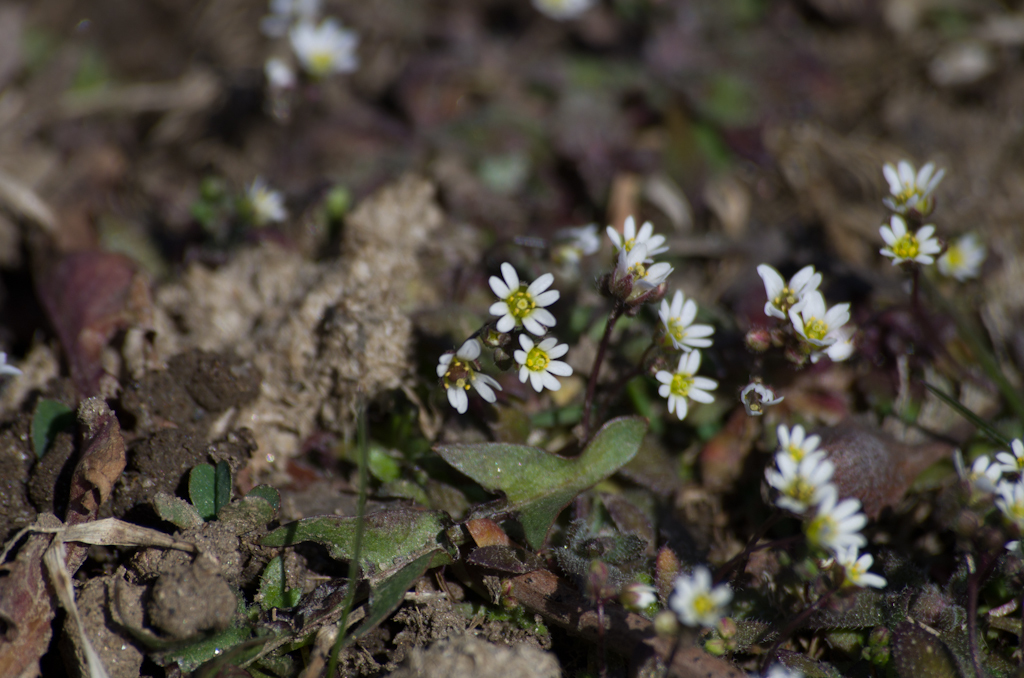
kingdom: Plantae
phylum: Tracheophyta
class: Magnoliopsida
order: Brassicales
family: Brassicaceae
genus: Draba
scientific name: Draba verna
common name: Spring draba
